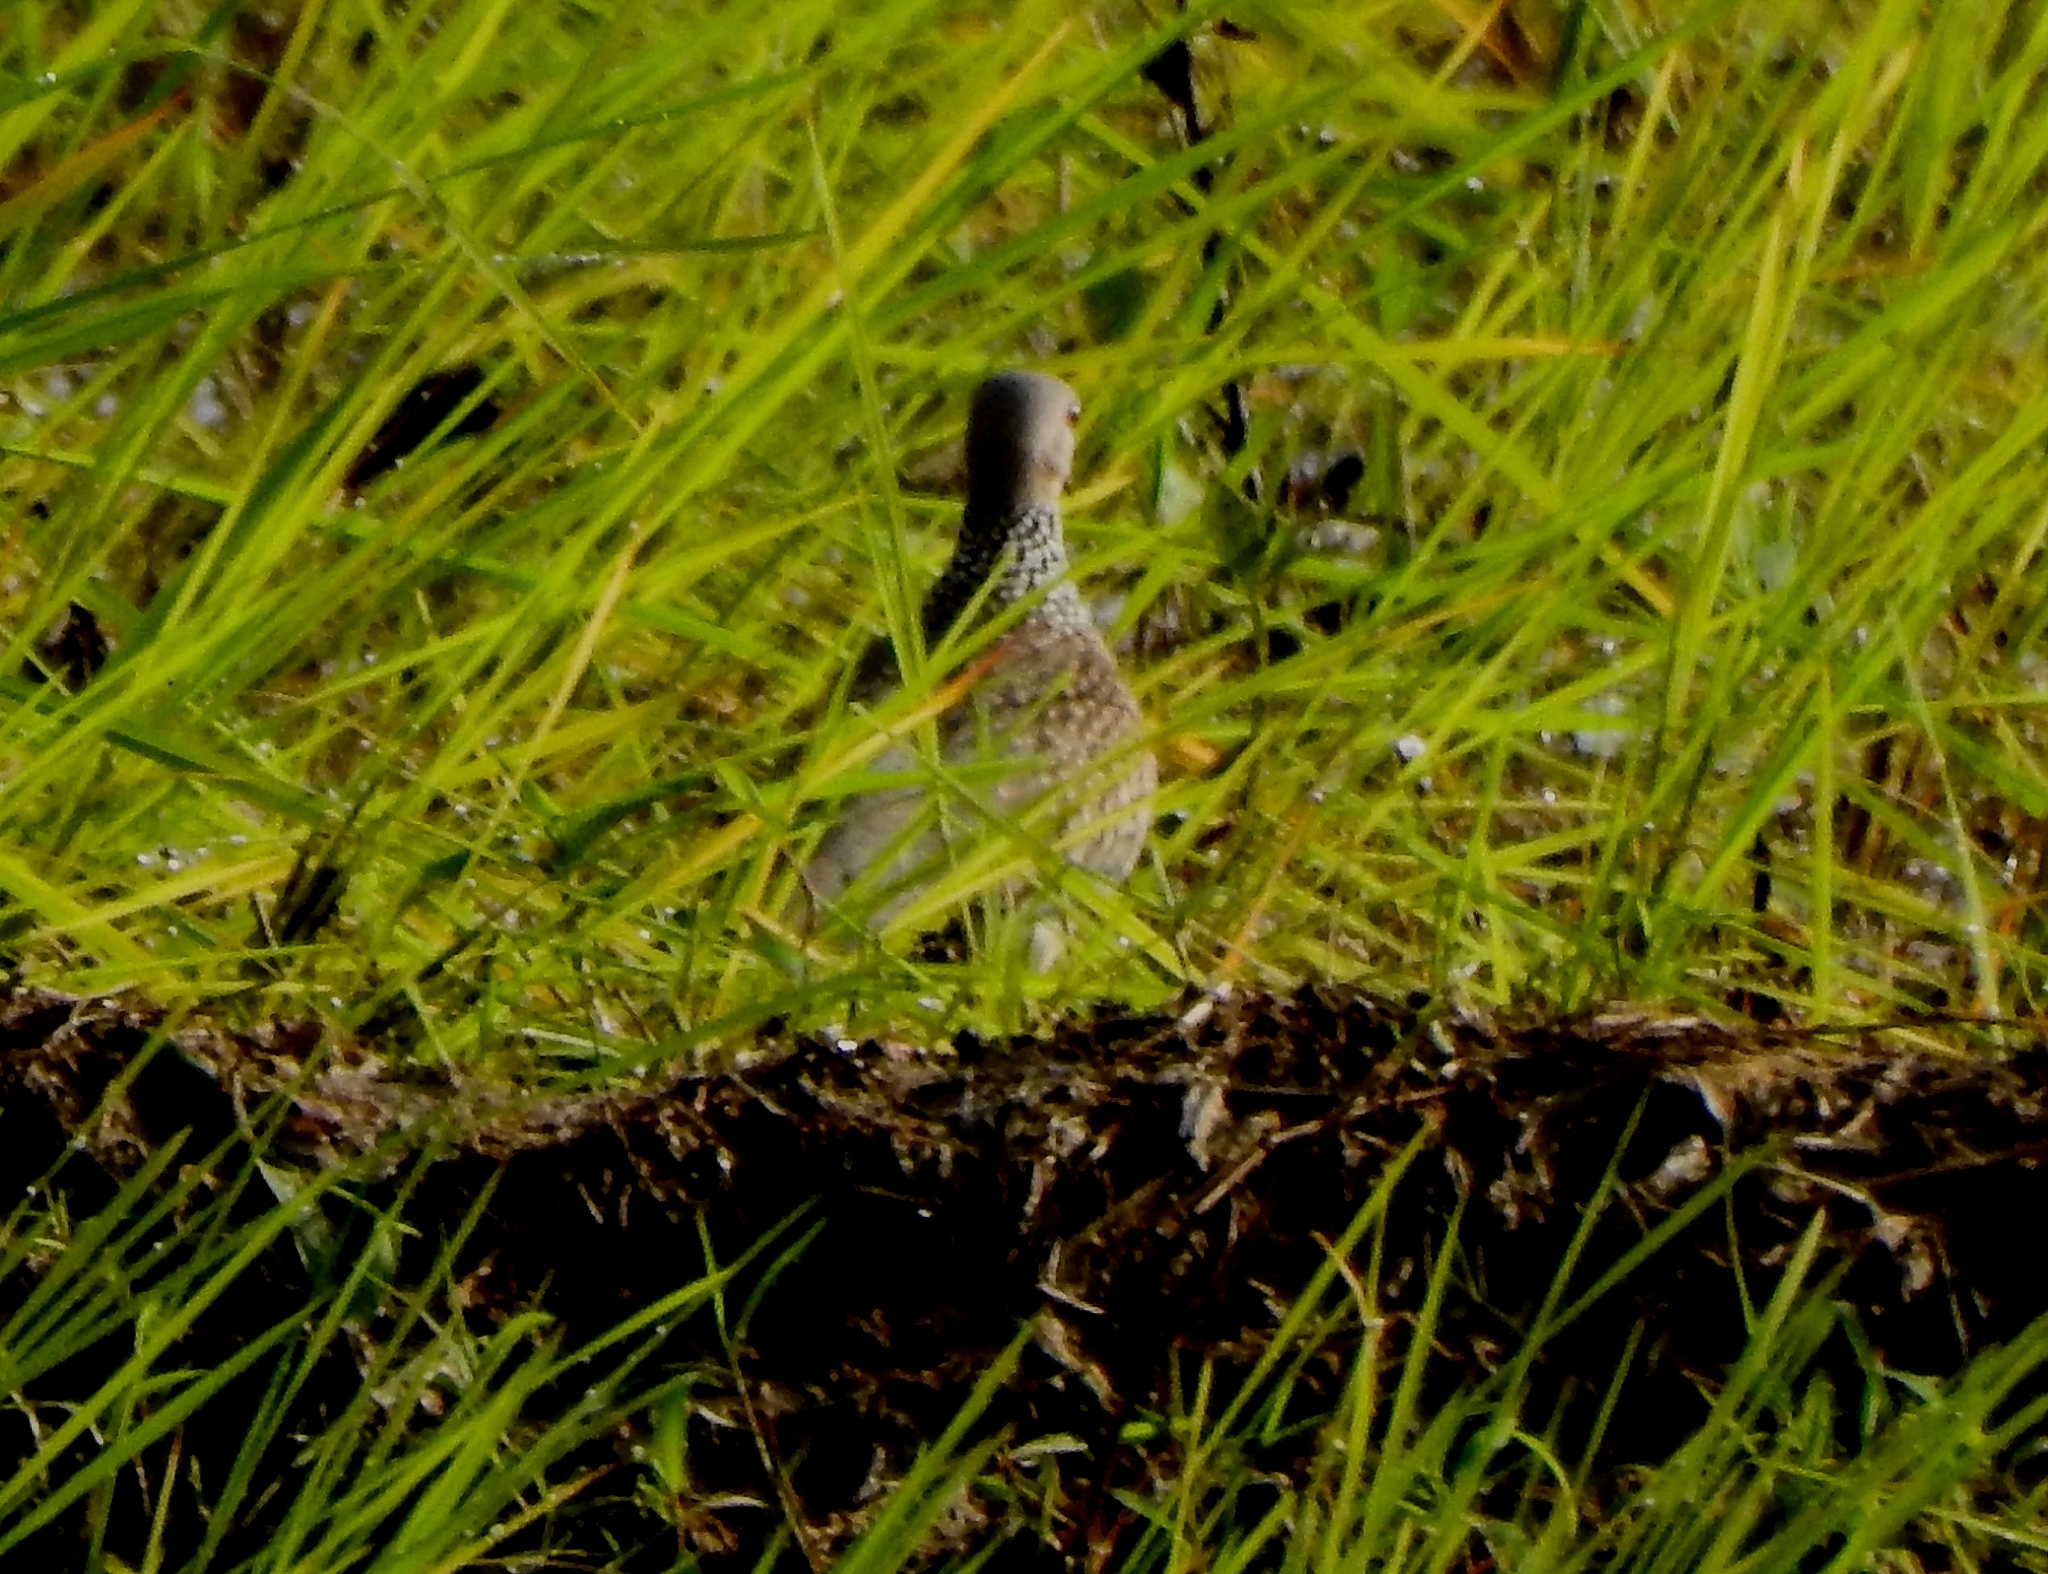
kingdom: Animalia
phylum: Chordata
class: Aves
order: Columbiformes
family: Columbidae
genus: Spilopelia
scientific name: Spilopelia chinensis
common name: Spotted dove
